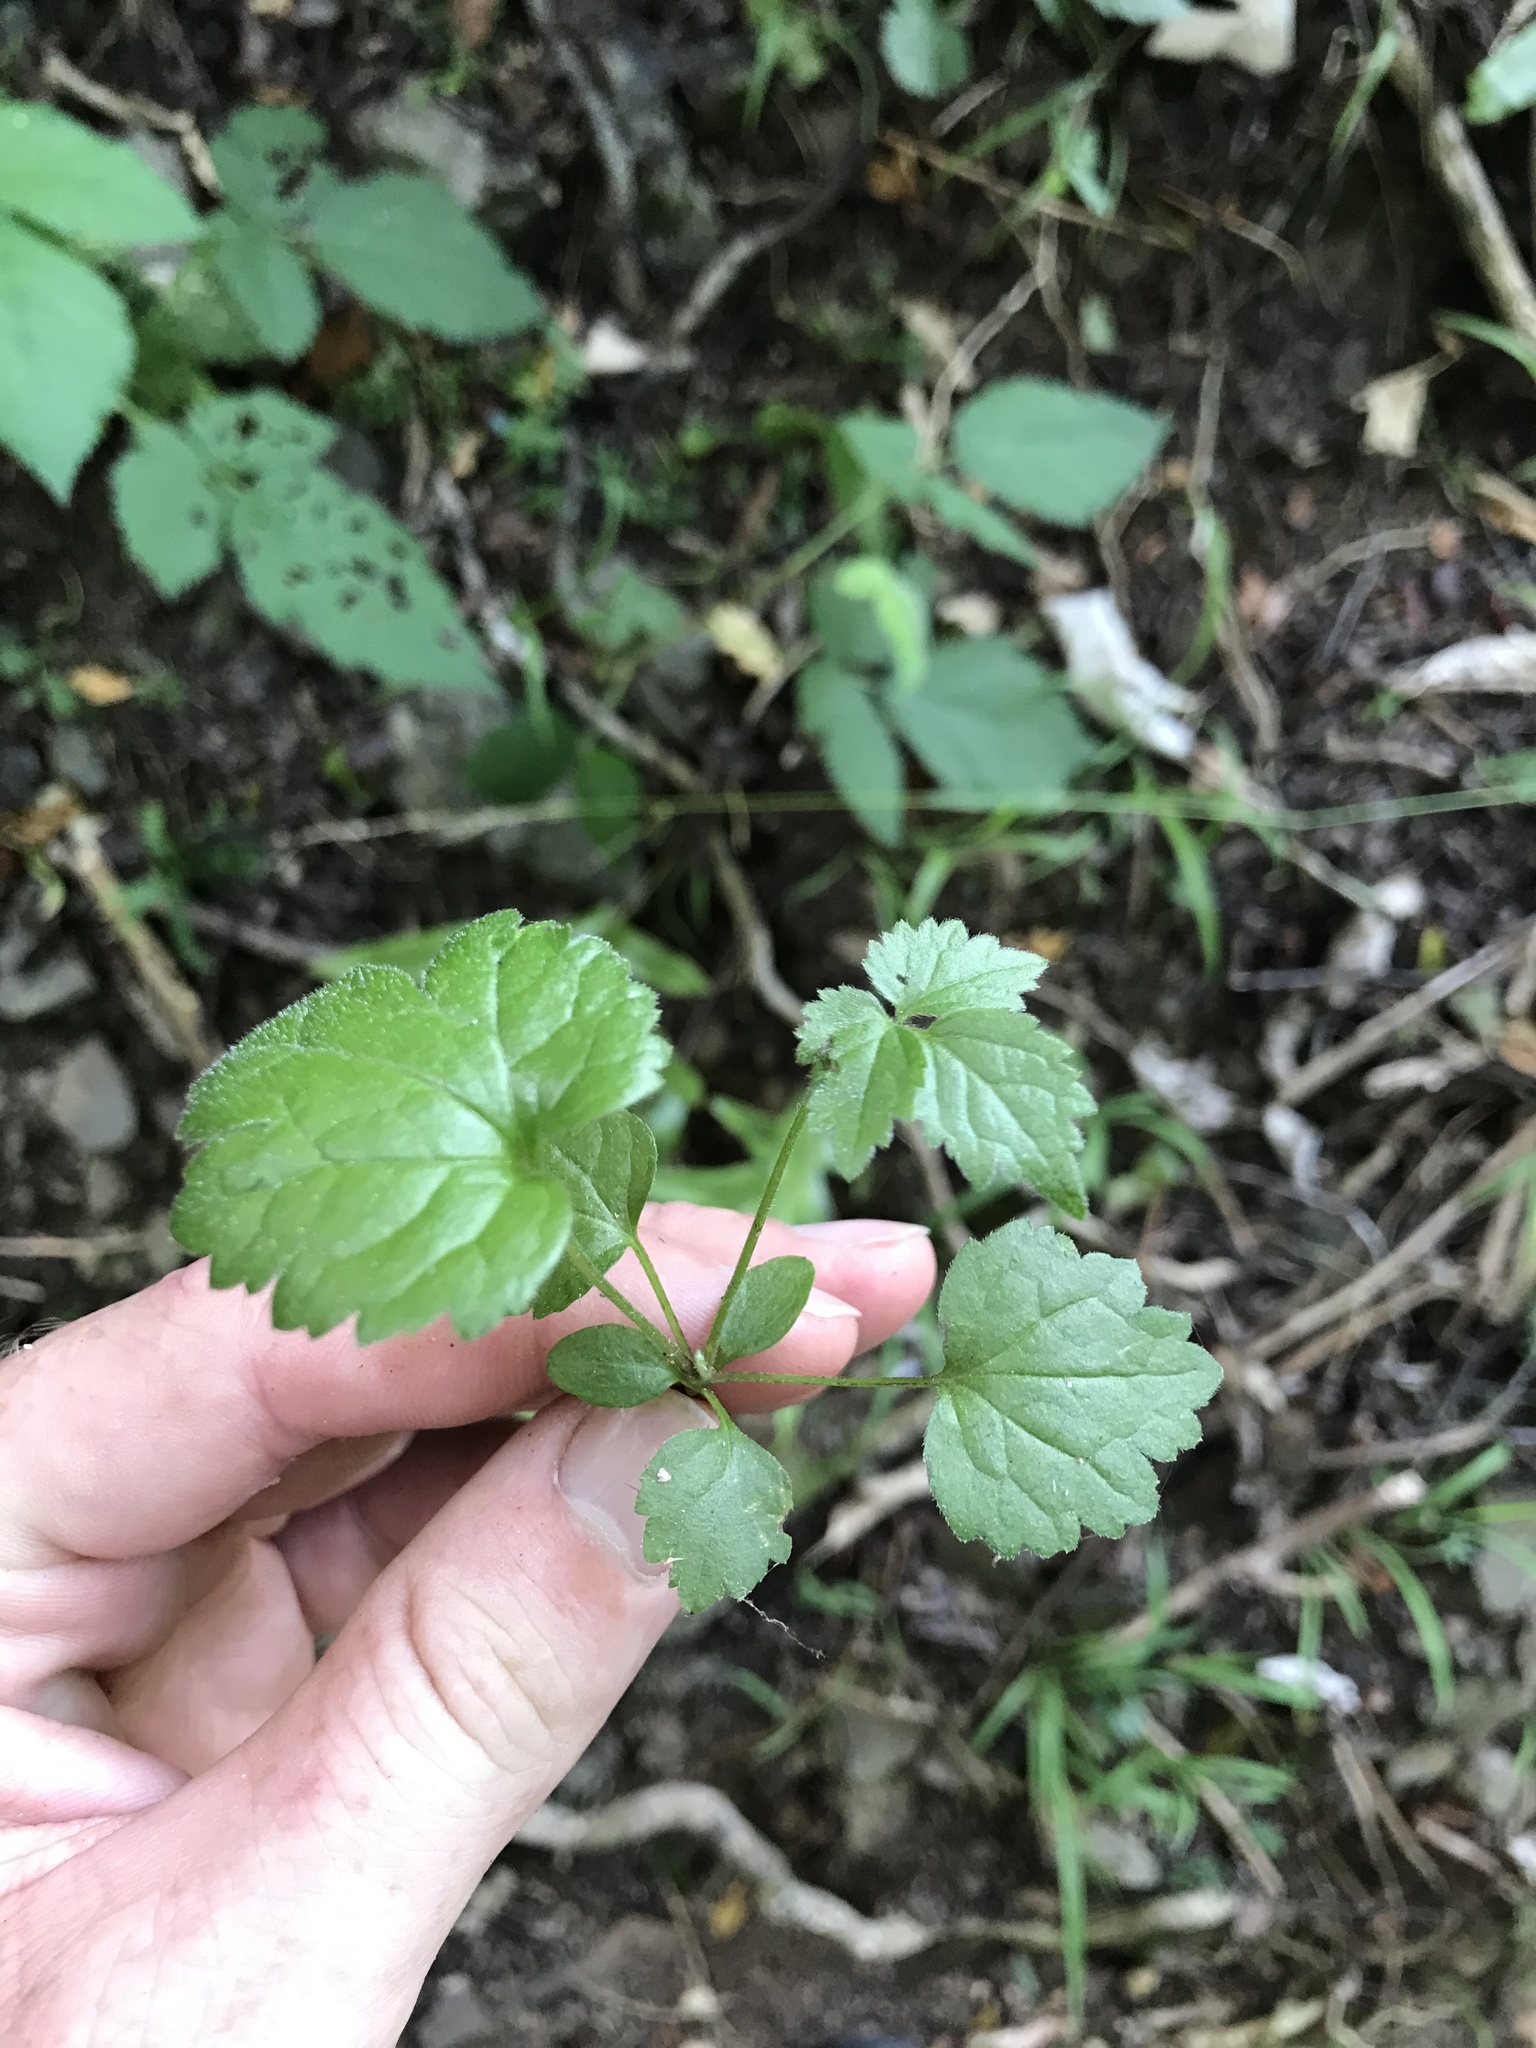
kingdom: Plantae
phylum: Tracheophyta
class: Magnoliopsida
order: Ranunculales
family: Ranunculaceae
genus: Clematis
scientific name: Clematis vitalba
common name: Evergreen clematis
